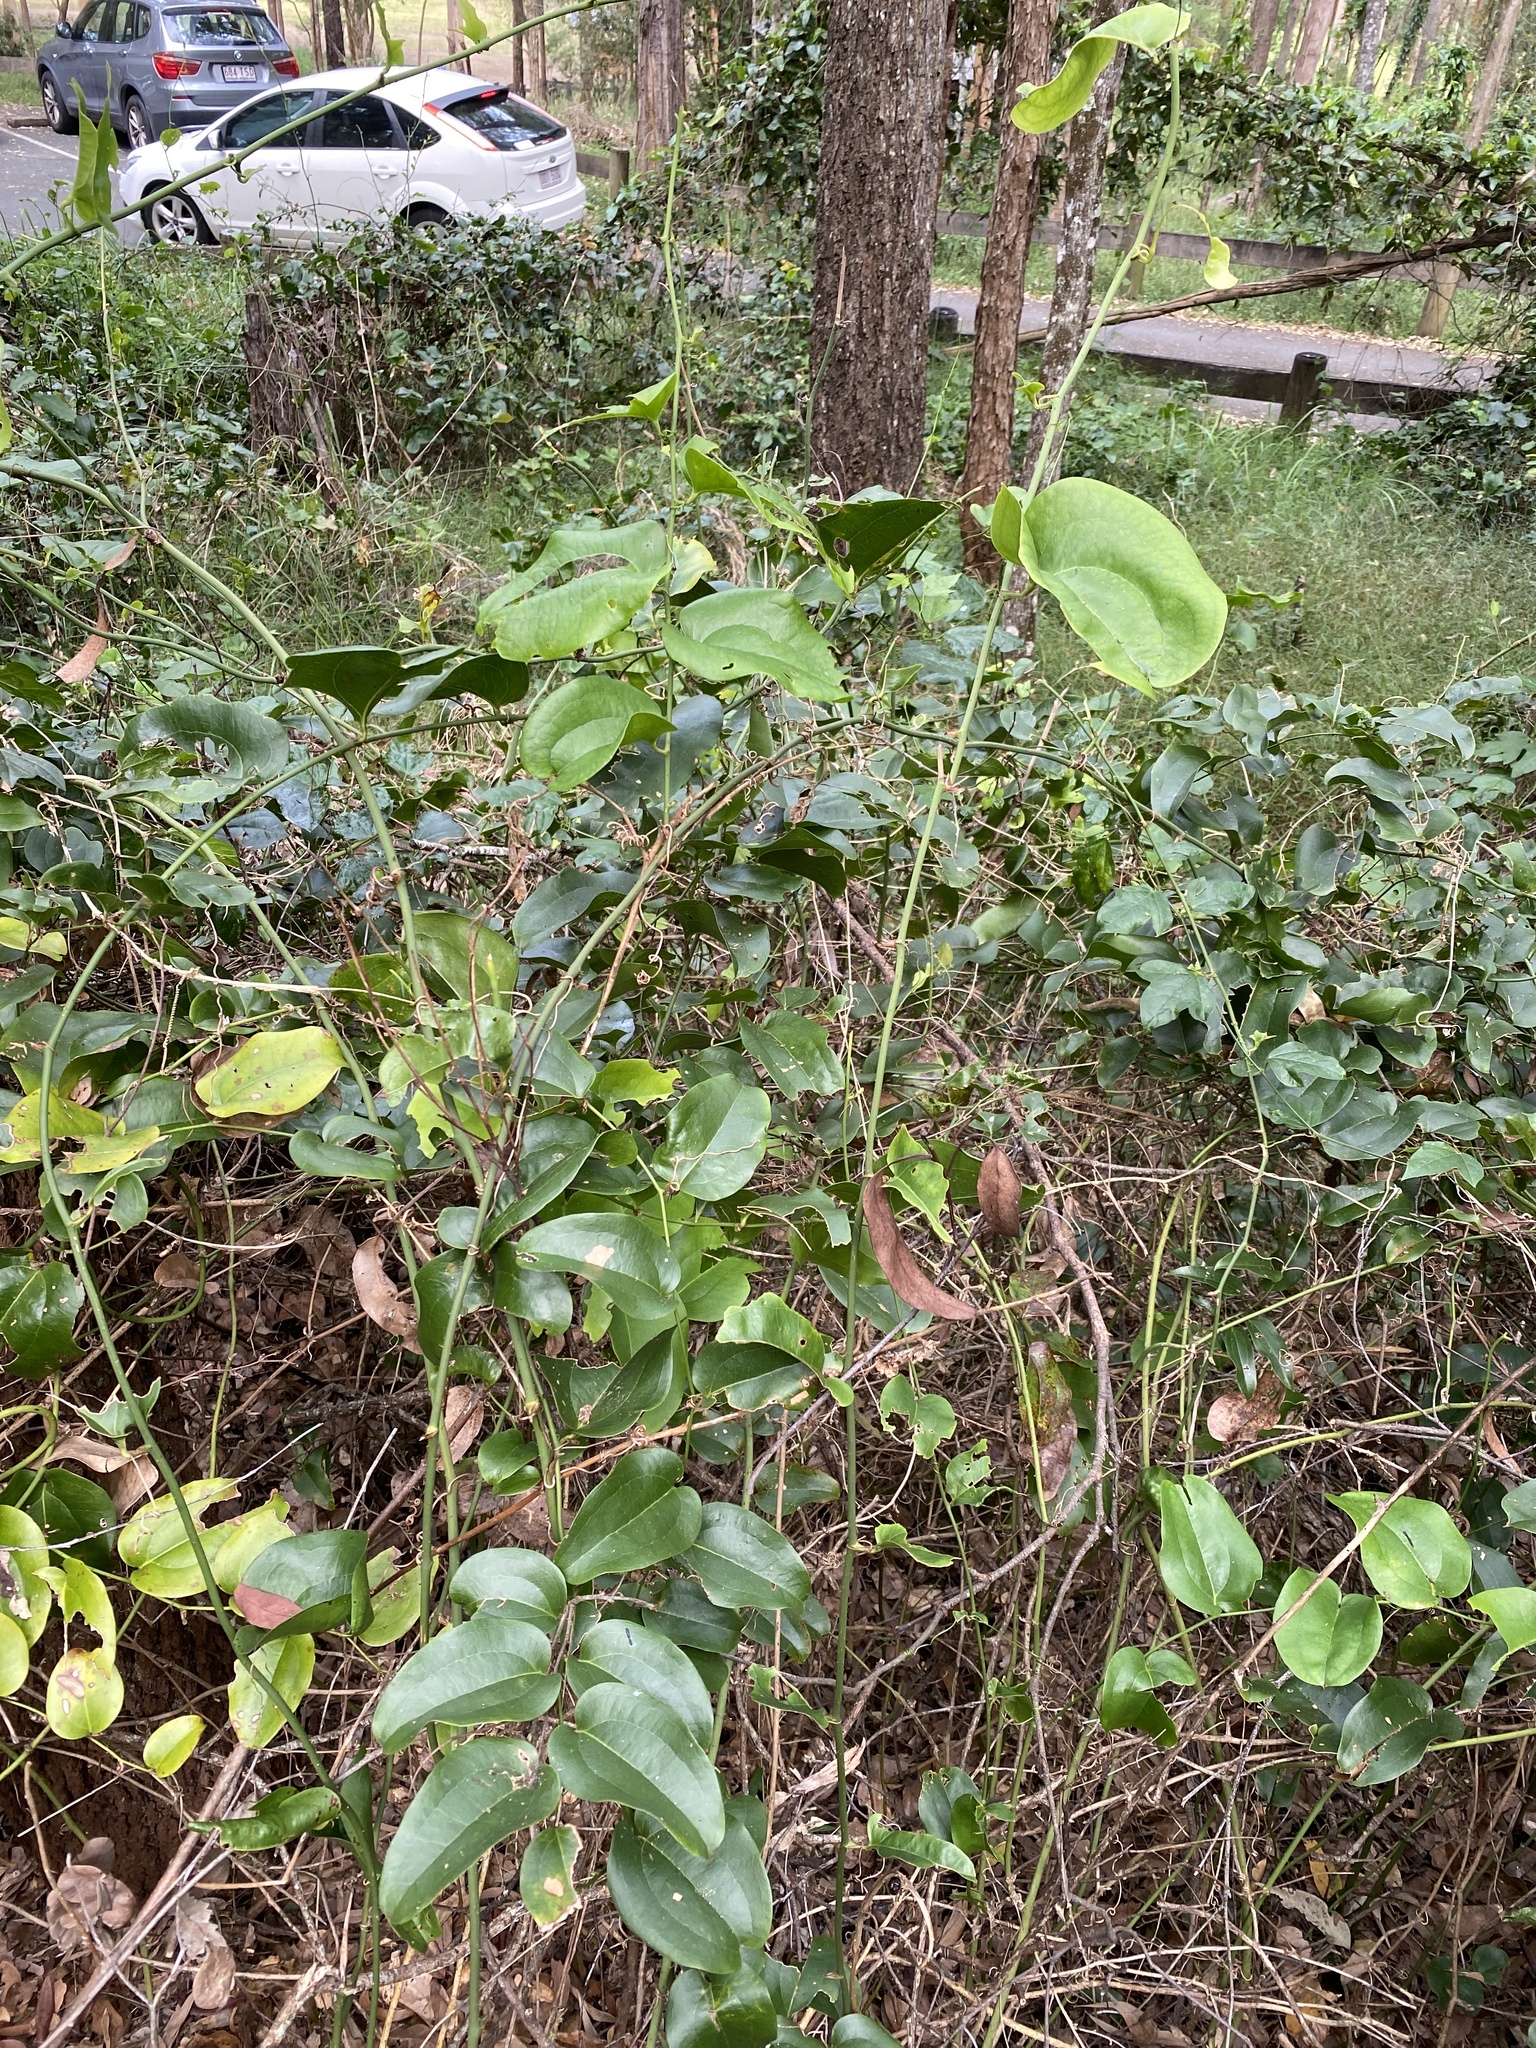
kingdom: Plantae
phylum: Tracheophyta
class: Liliopsida
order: Liliales
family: Smilacaceae
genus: Smilax
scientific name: Smilax australis
